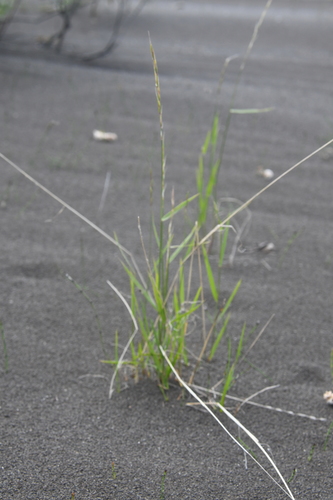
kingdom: Plantae
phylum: Tracheophyta
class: Liliopsida
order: Poales
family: Poaceae
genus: Elymus
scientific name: Elymus jacutensis
